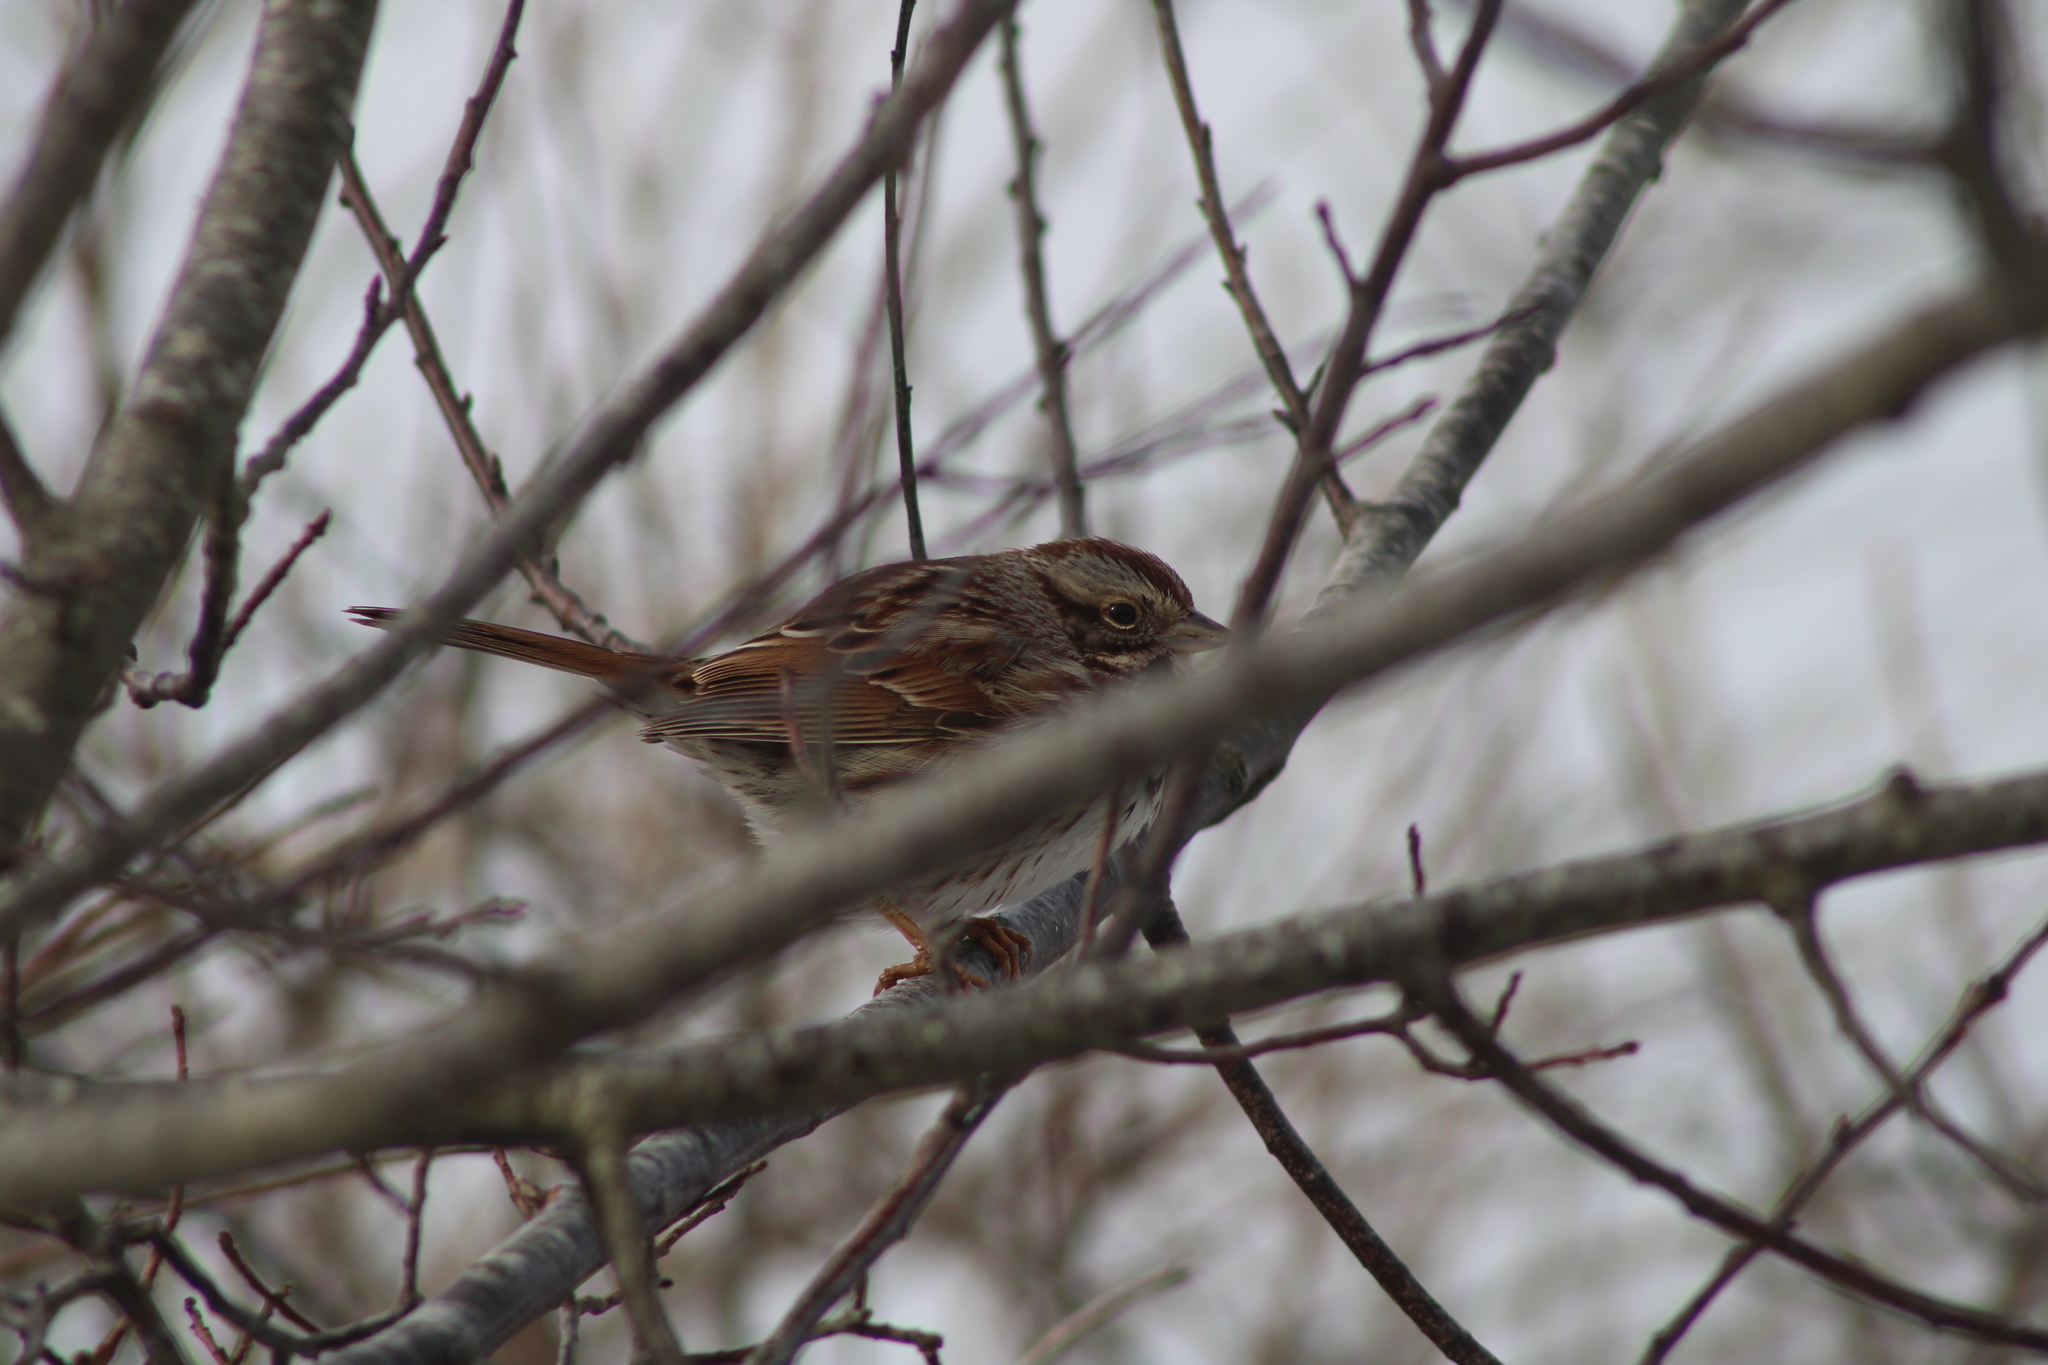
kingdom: Animalia
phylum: Chordata
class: Aves
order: Passeriformes
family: Passerellidae
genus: Melospiza
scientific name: Melospiza melodia
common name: Song sparrow
